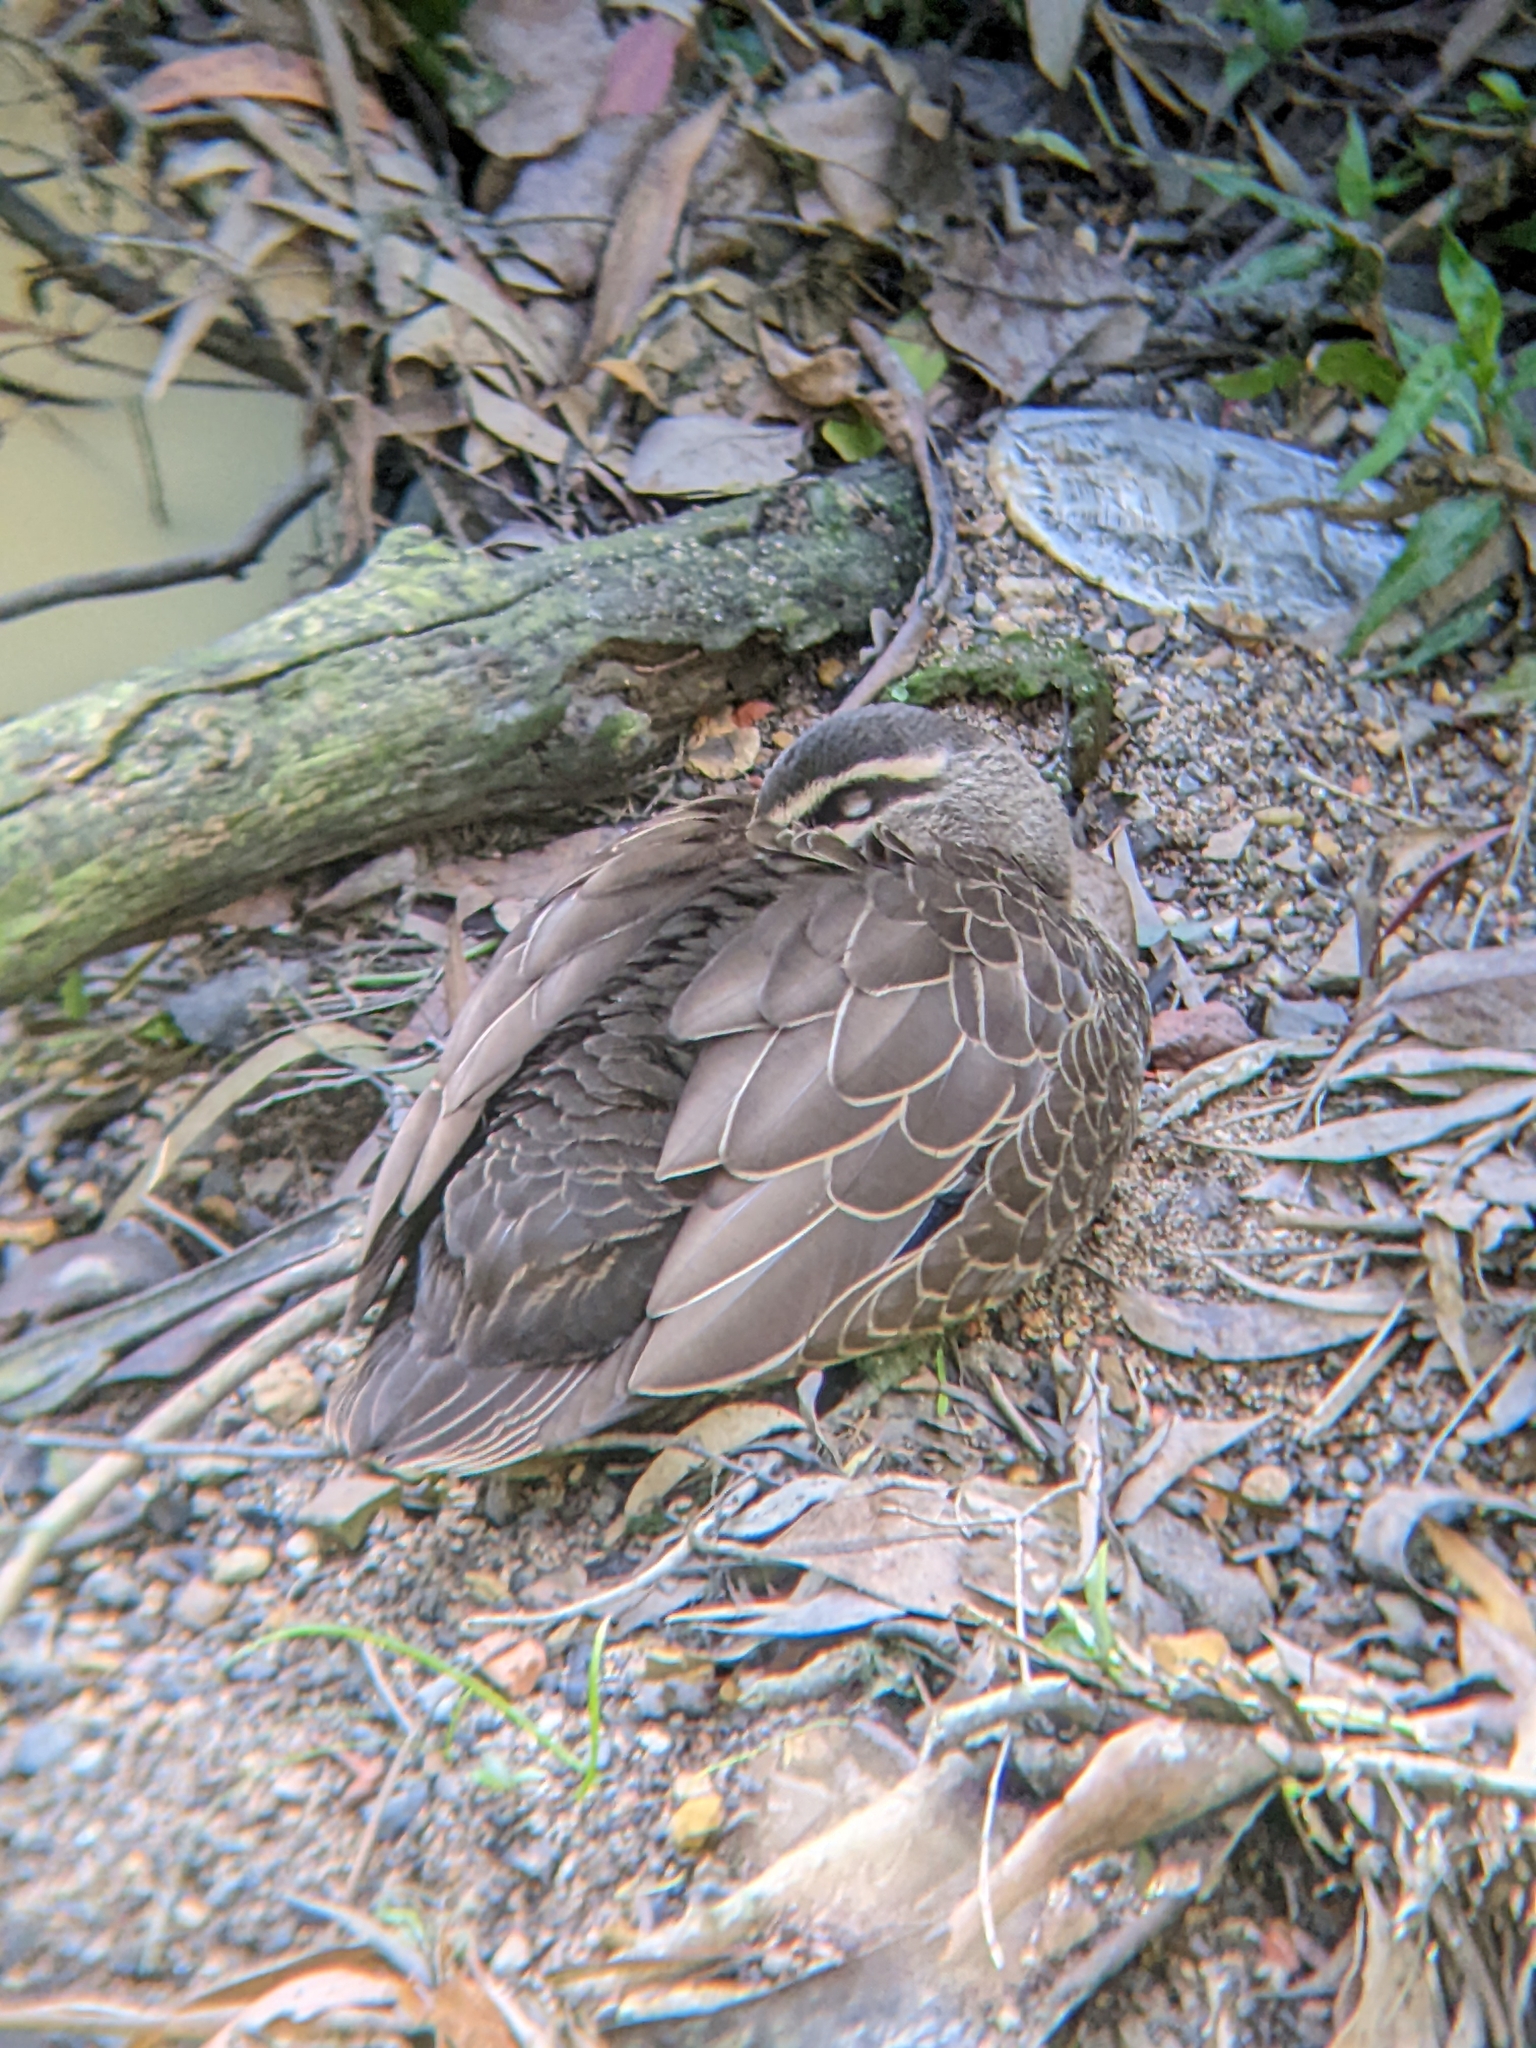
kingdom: Animalia
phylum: Chordata
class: Aves
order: Anseriformes
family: Anatidae
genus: Anas
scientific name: Anas superciliosa
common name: Pacific black duck
